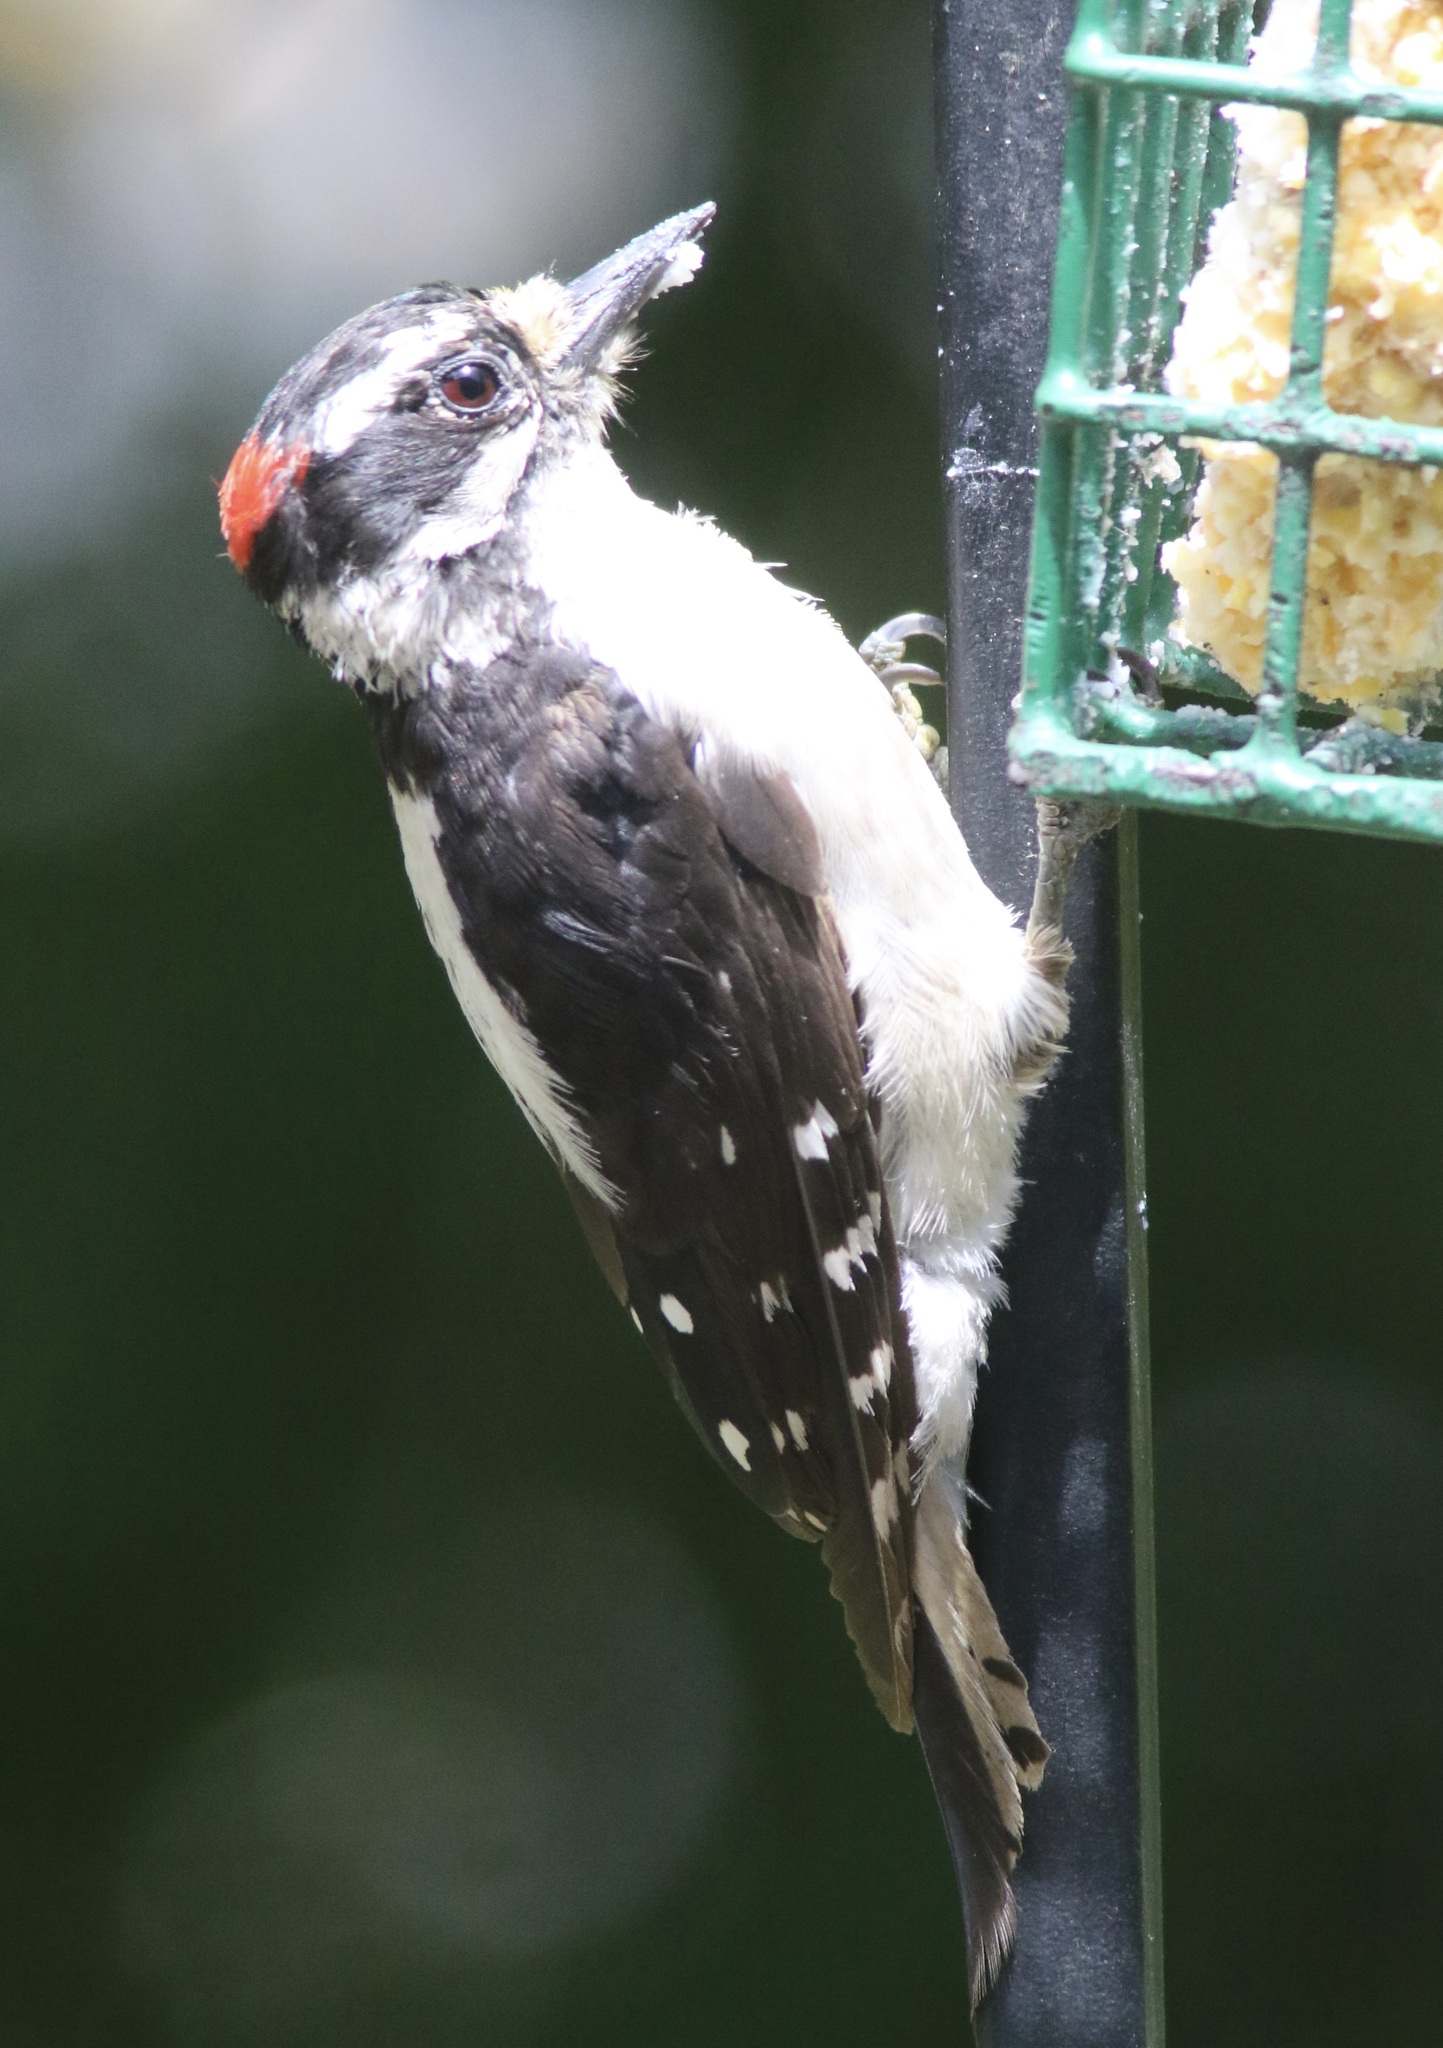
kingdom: Animalia
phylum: Chordata
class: Aves
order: Piciformes
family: Picidae
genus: Dryobates
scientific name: Dryobates pubescens
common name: Downy woodpecker
